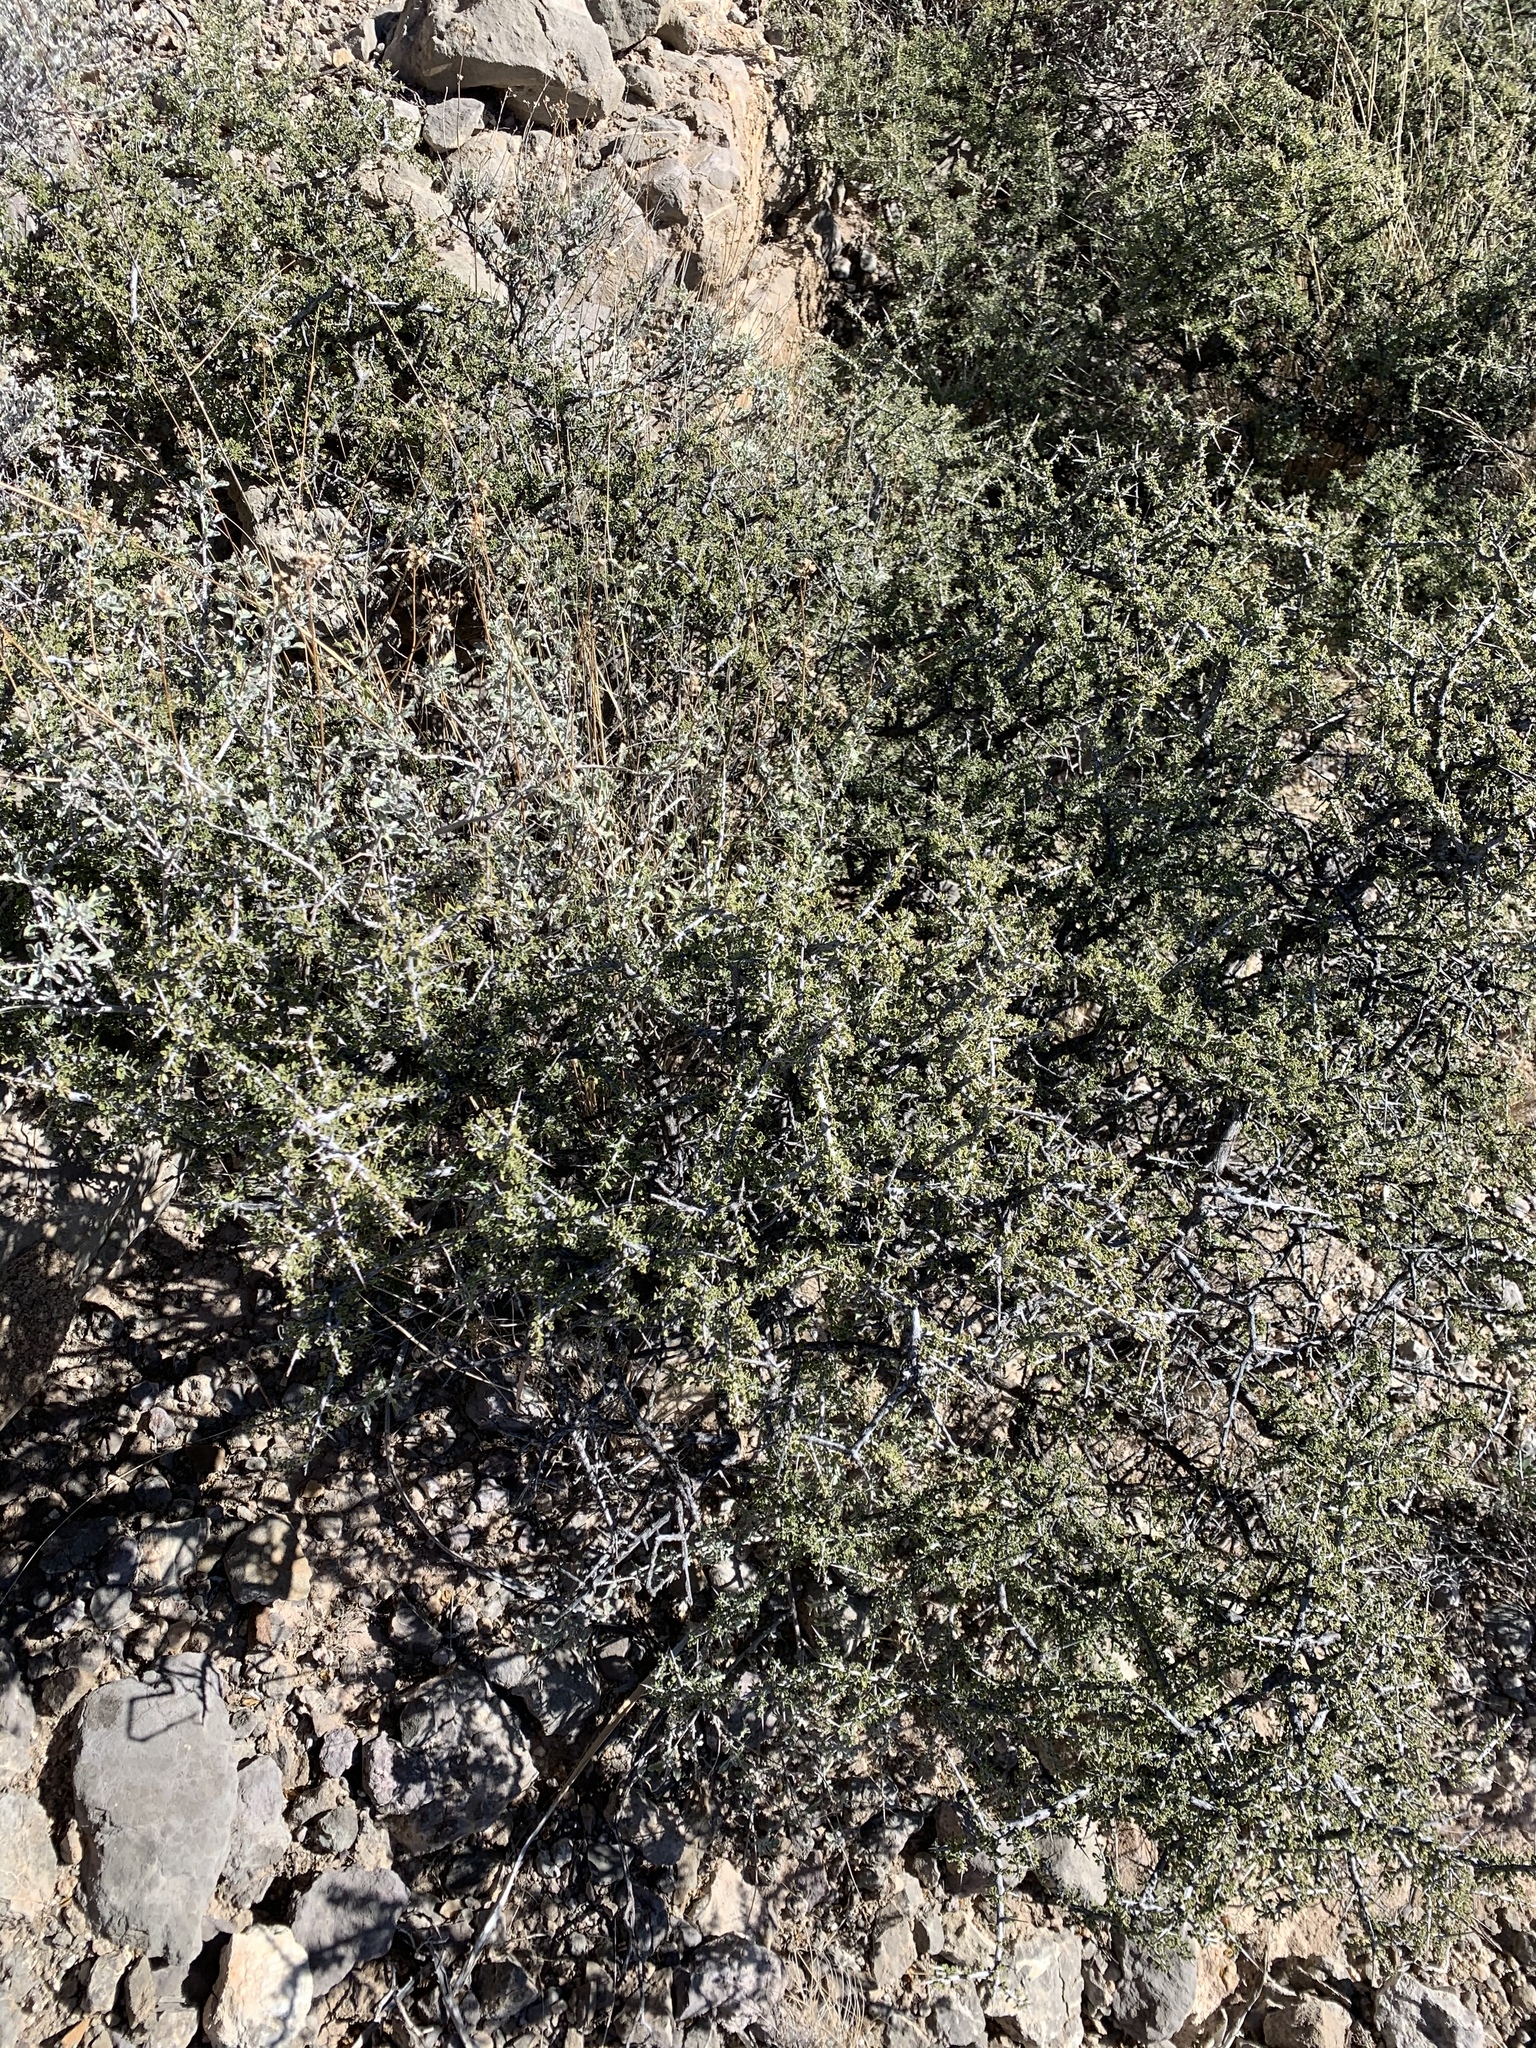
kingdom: Plantae
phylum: Tracheophyta
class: Magnoliopsida
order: Rosales
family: Rhamnaceae
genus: Condalia
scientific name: Condalia warnockii
